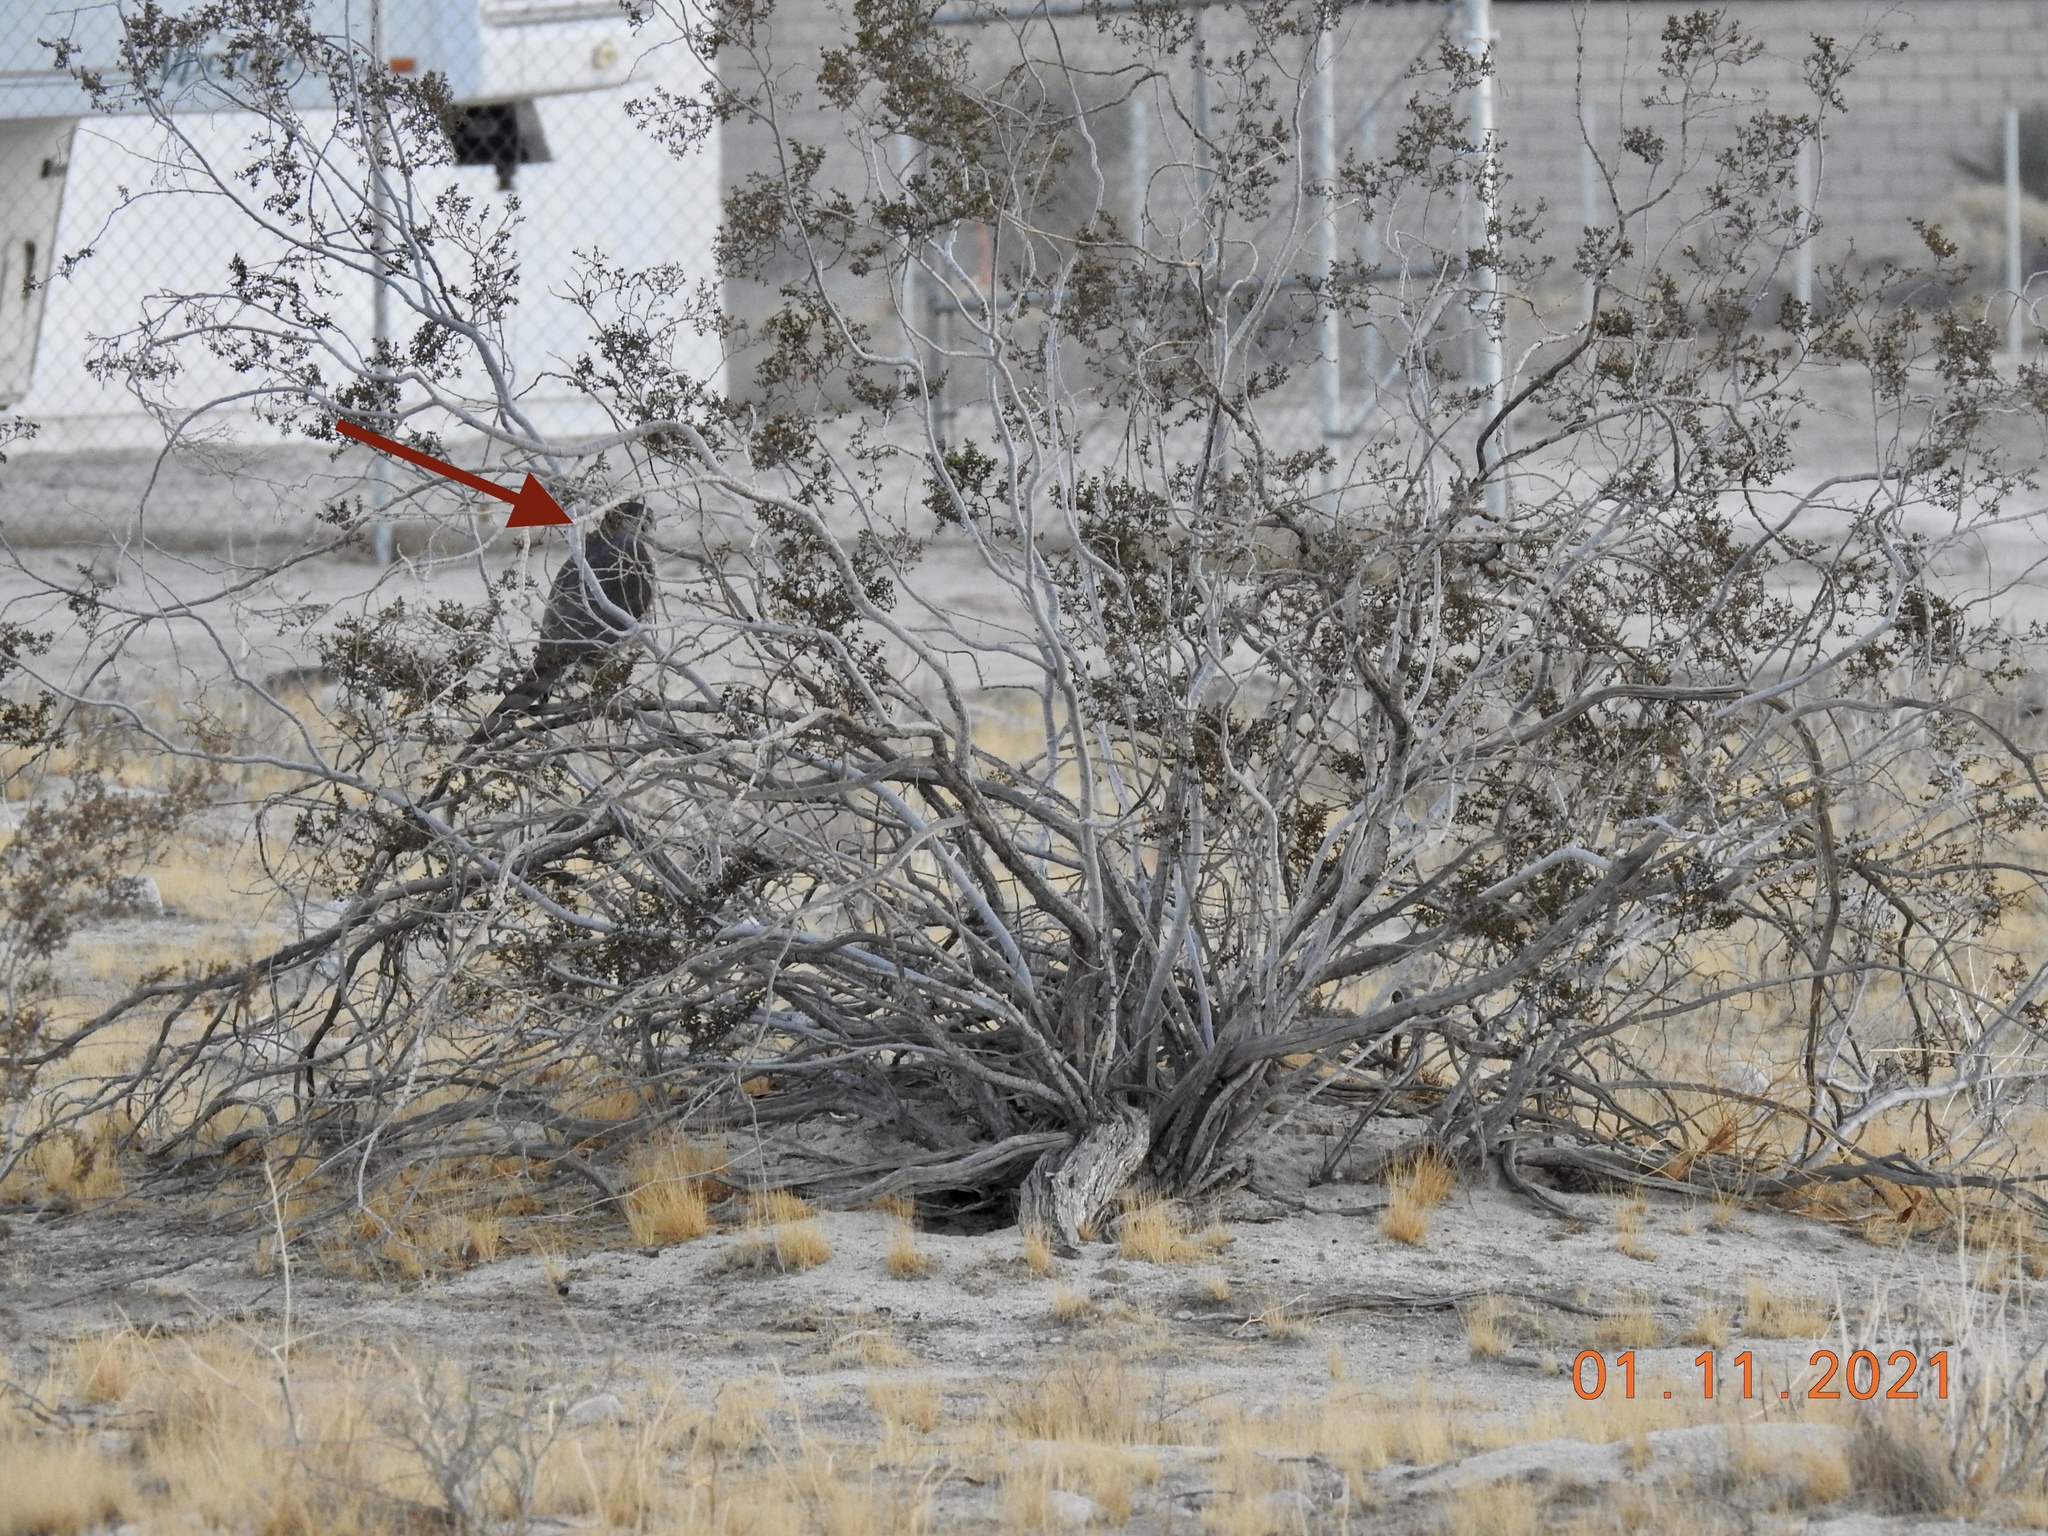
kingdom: Animalia
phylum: Chordata
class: Aves
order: Accipitriformes
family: Accipitridae
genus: Accipiter
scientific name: Accipiter cooperii
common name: Cooper's hawk
